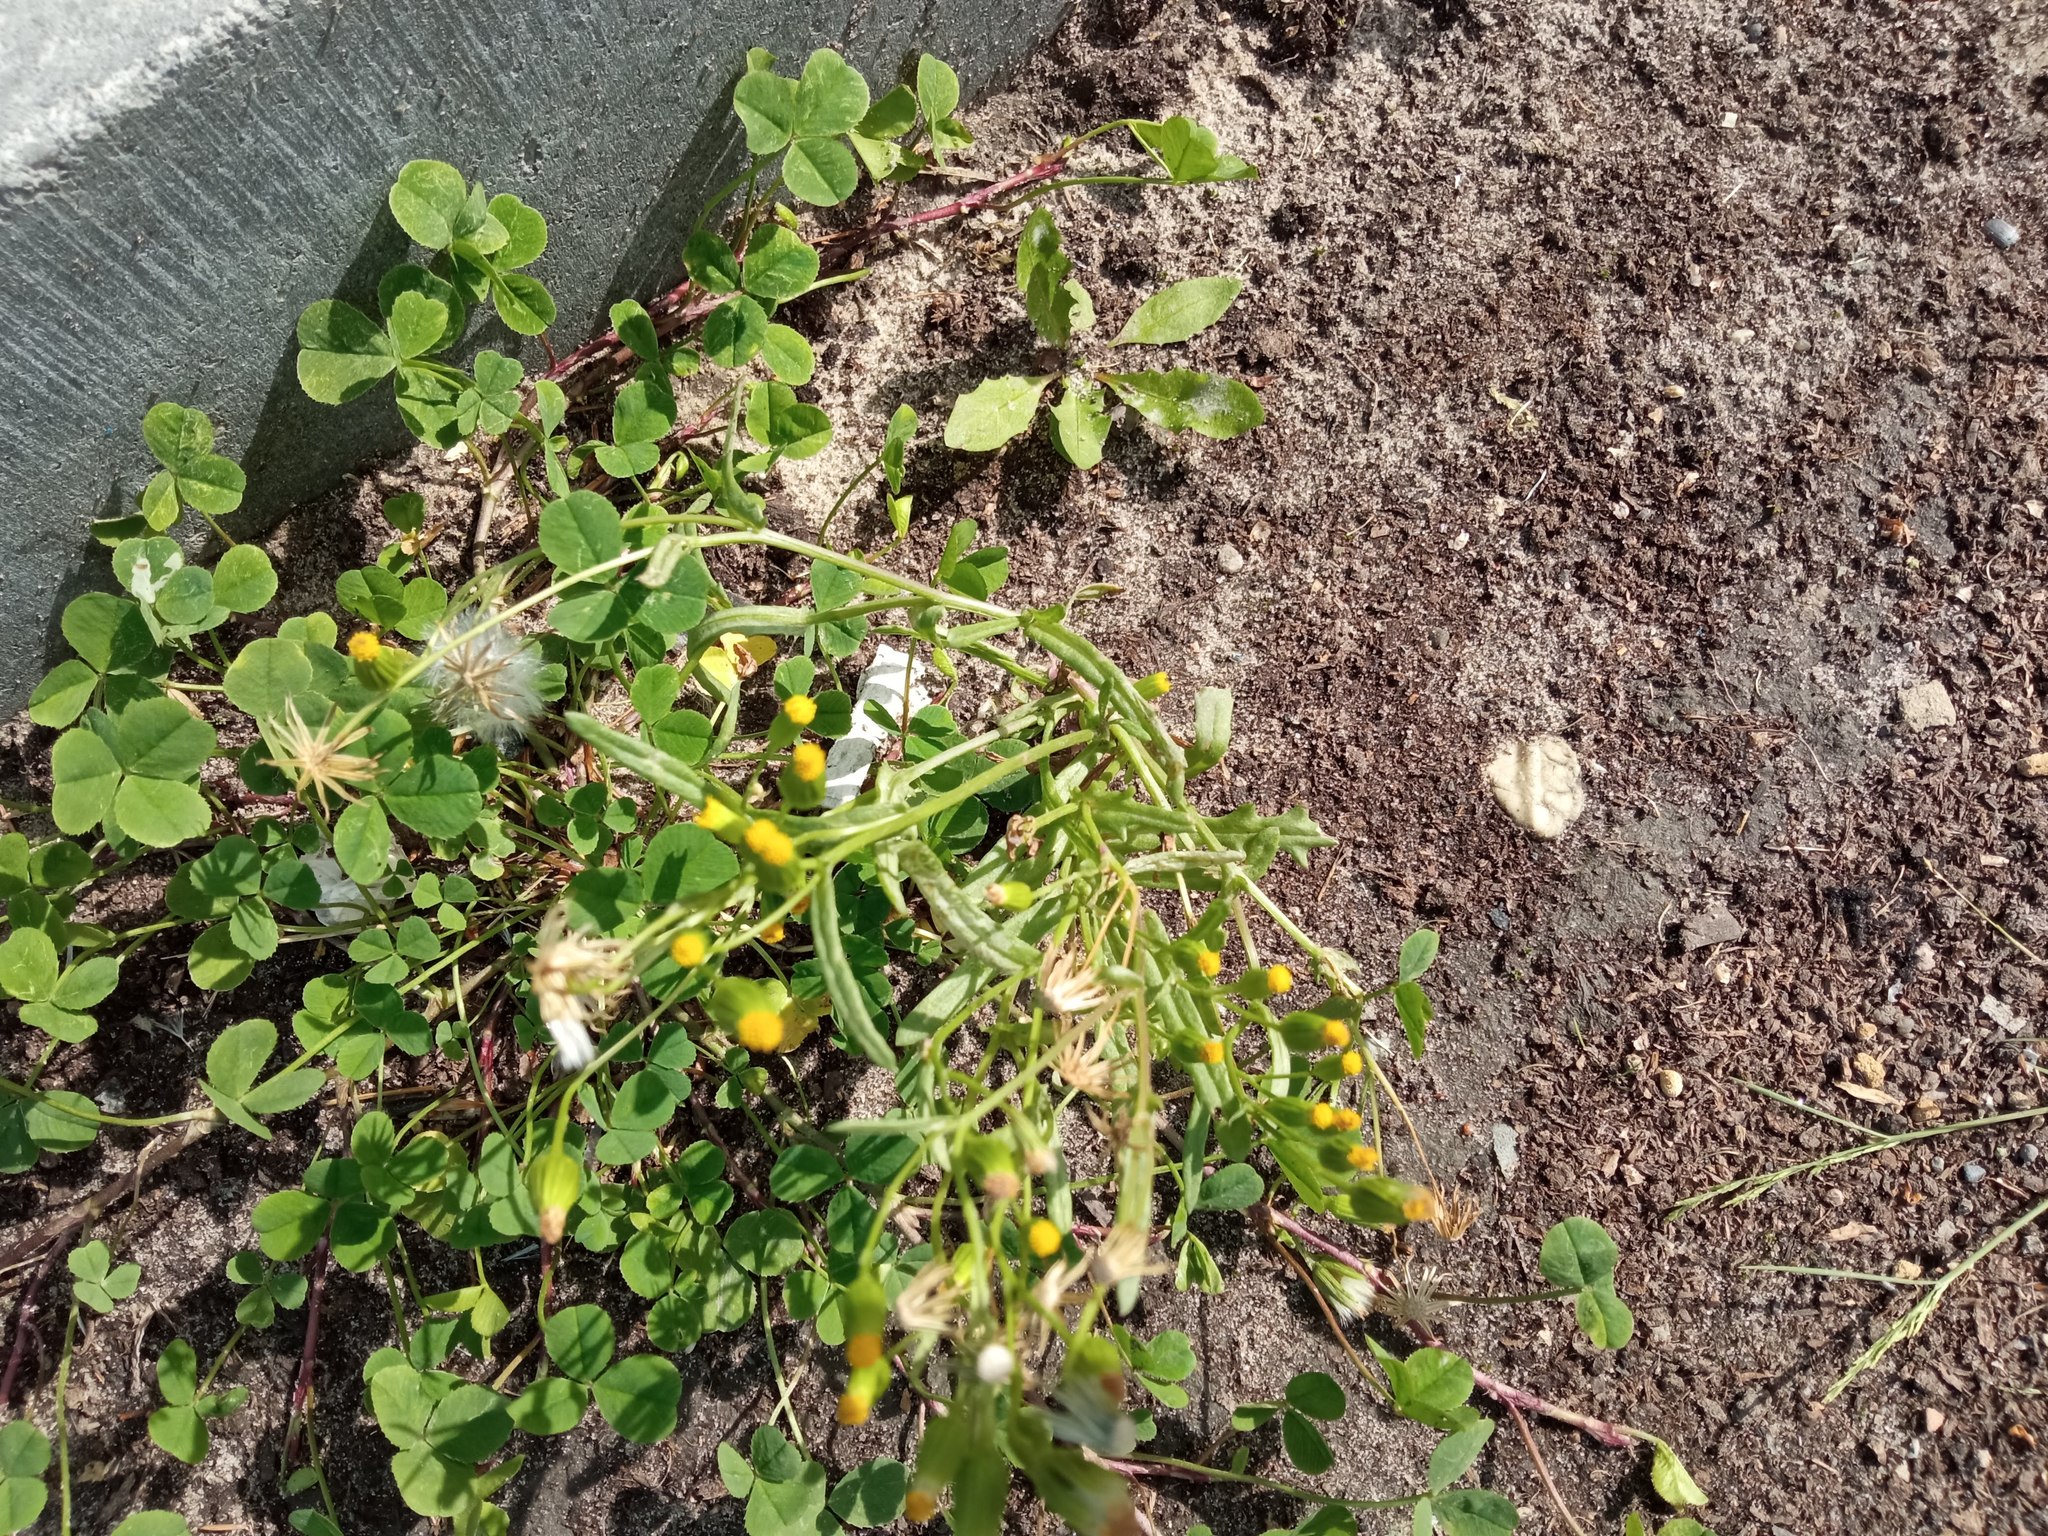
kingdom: Plantae
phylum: Tracheophyta
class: Magnoliopsida
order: Asterales
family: Asteraceae
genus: Senecio
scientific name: Senecio dubitabilis
